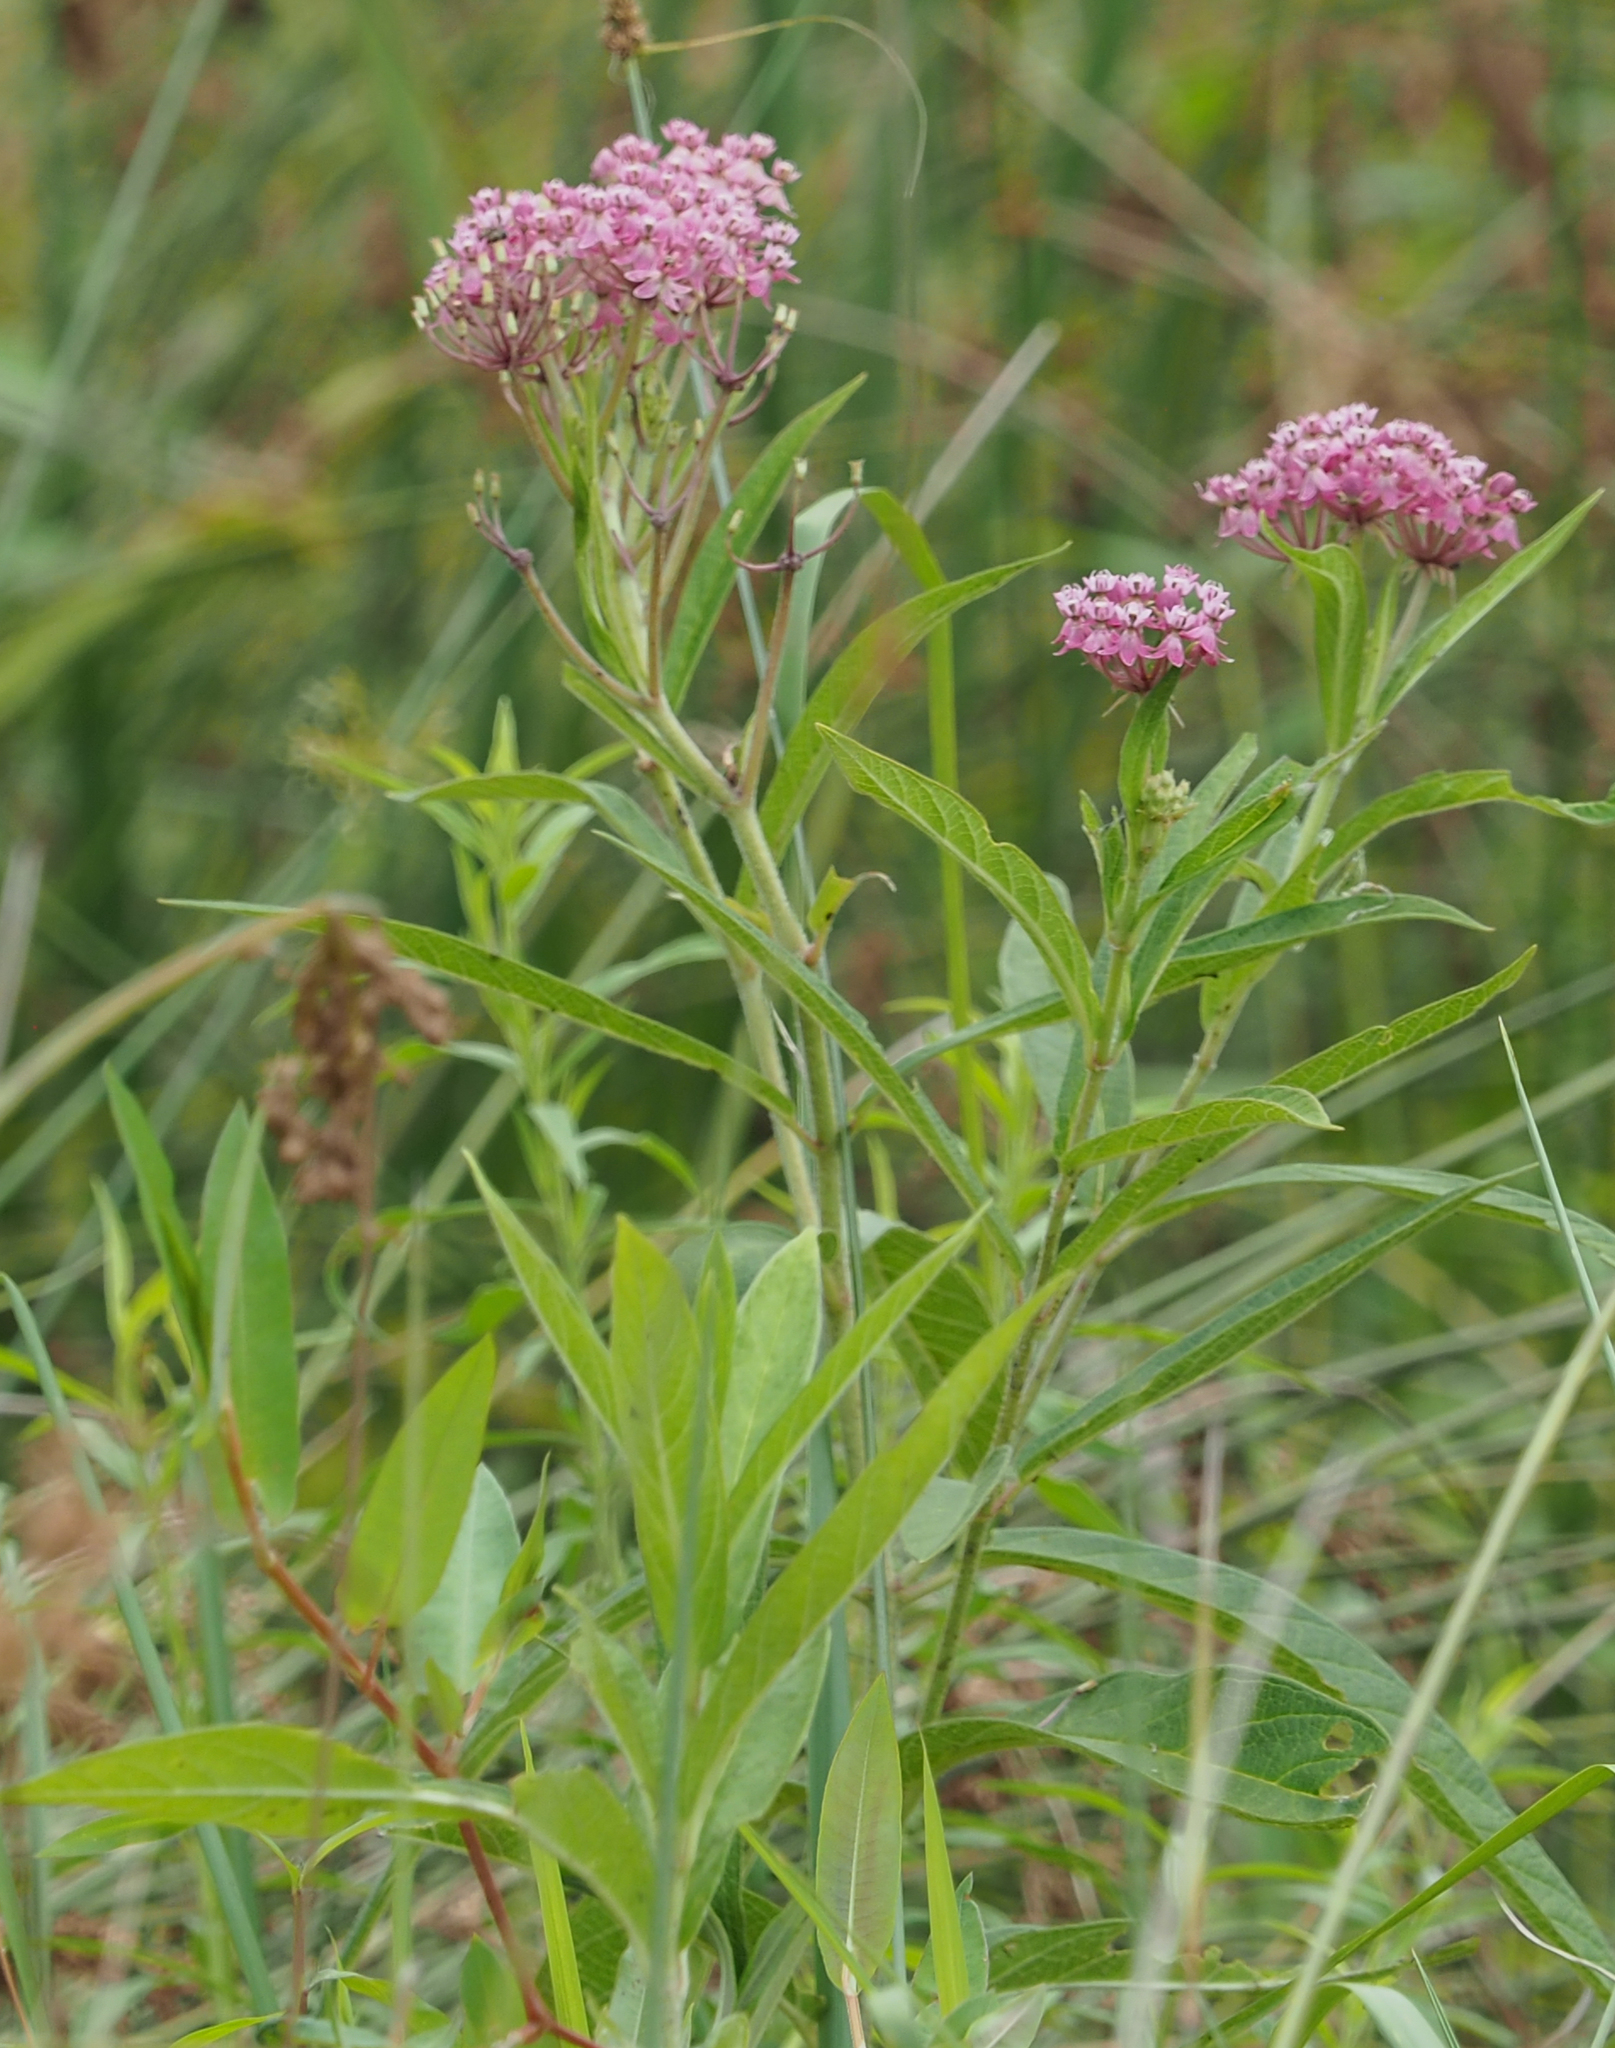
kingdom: Plantae
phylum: Tracheophyta
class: Magnoliopsida
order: Gentianales
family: Apocynaceae
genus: Asclepias
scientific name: Asclepias incarnata
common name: Swamp milkweed
